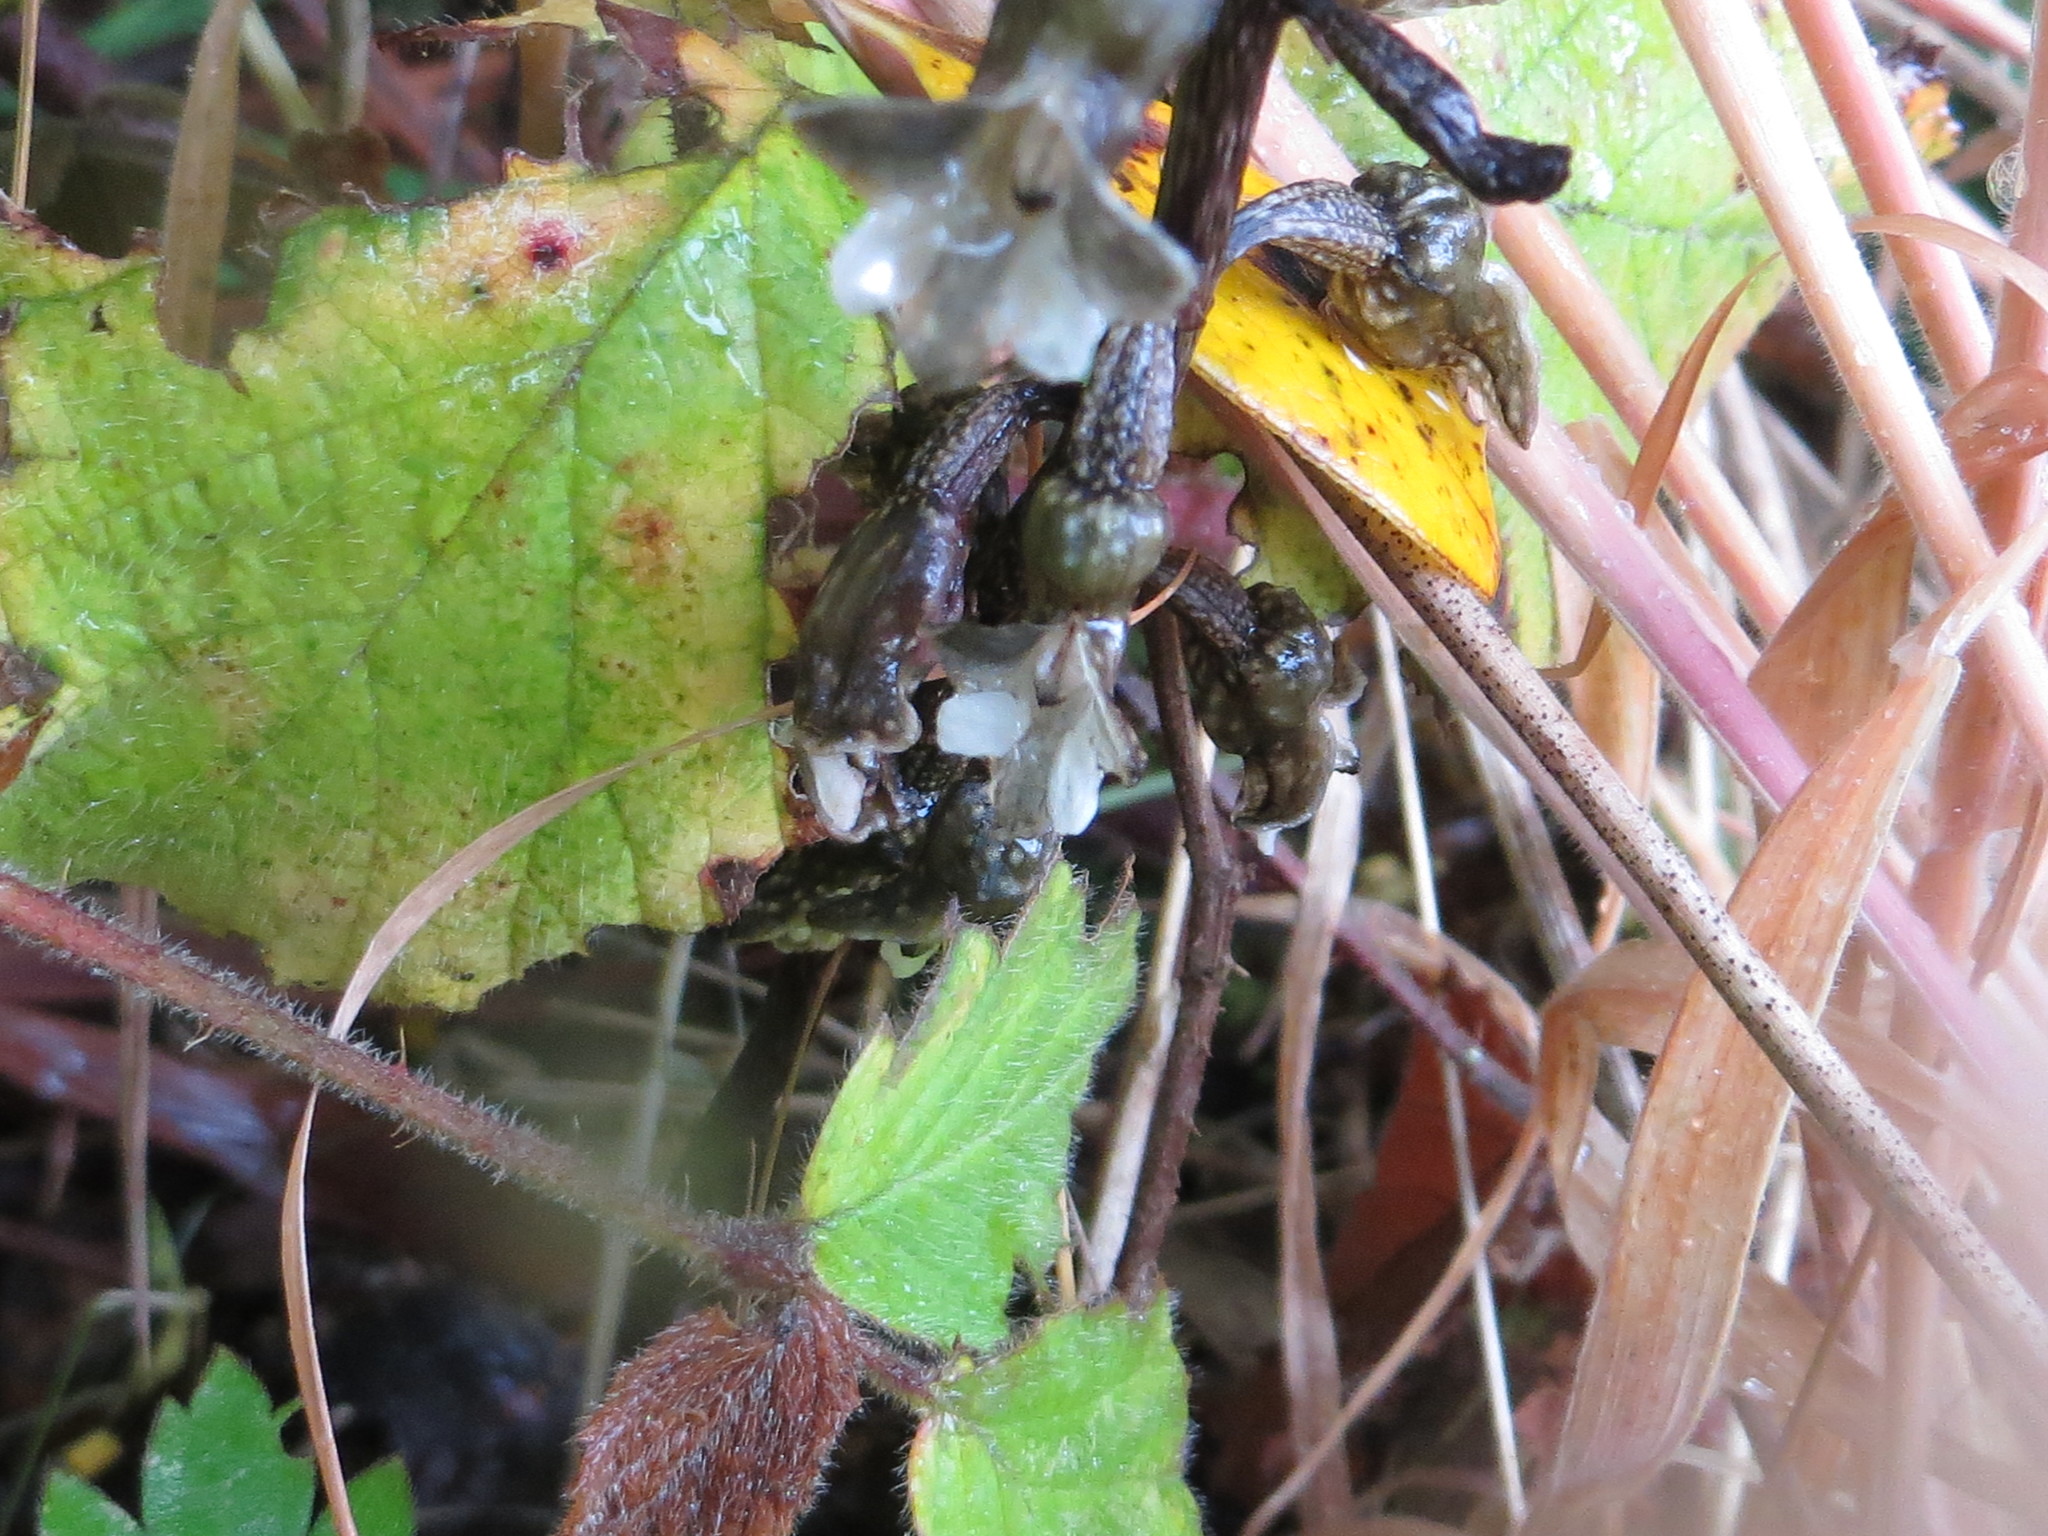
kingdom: Plantae
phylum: Tracheophyta
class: Liliopsida
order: Asparagales
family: Orchidaceae
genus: Gastrodia
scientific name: Gastrodia cunninghamii
